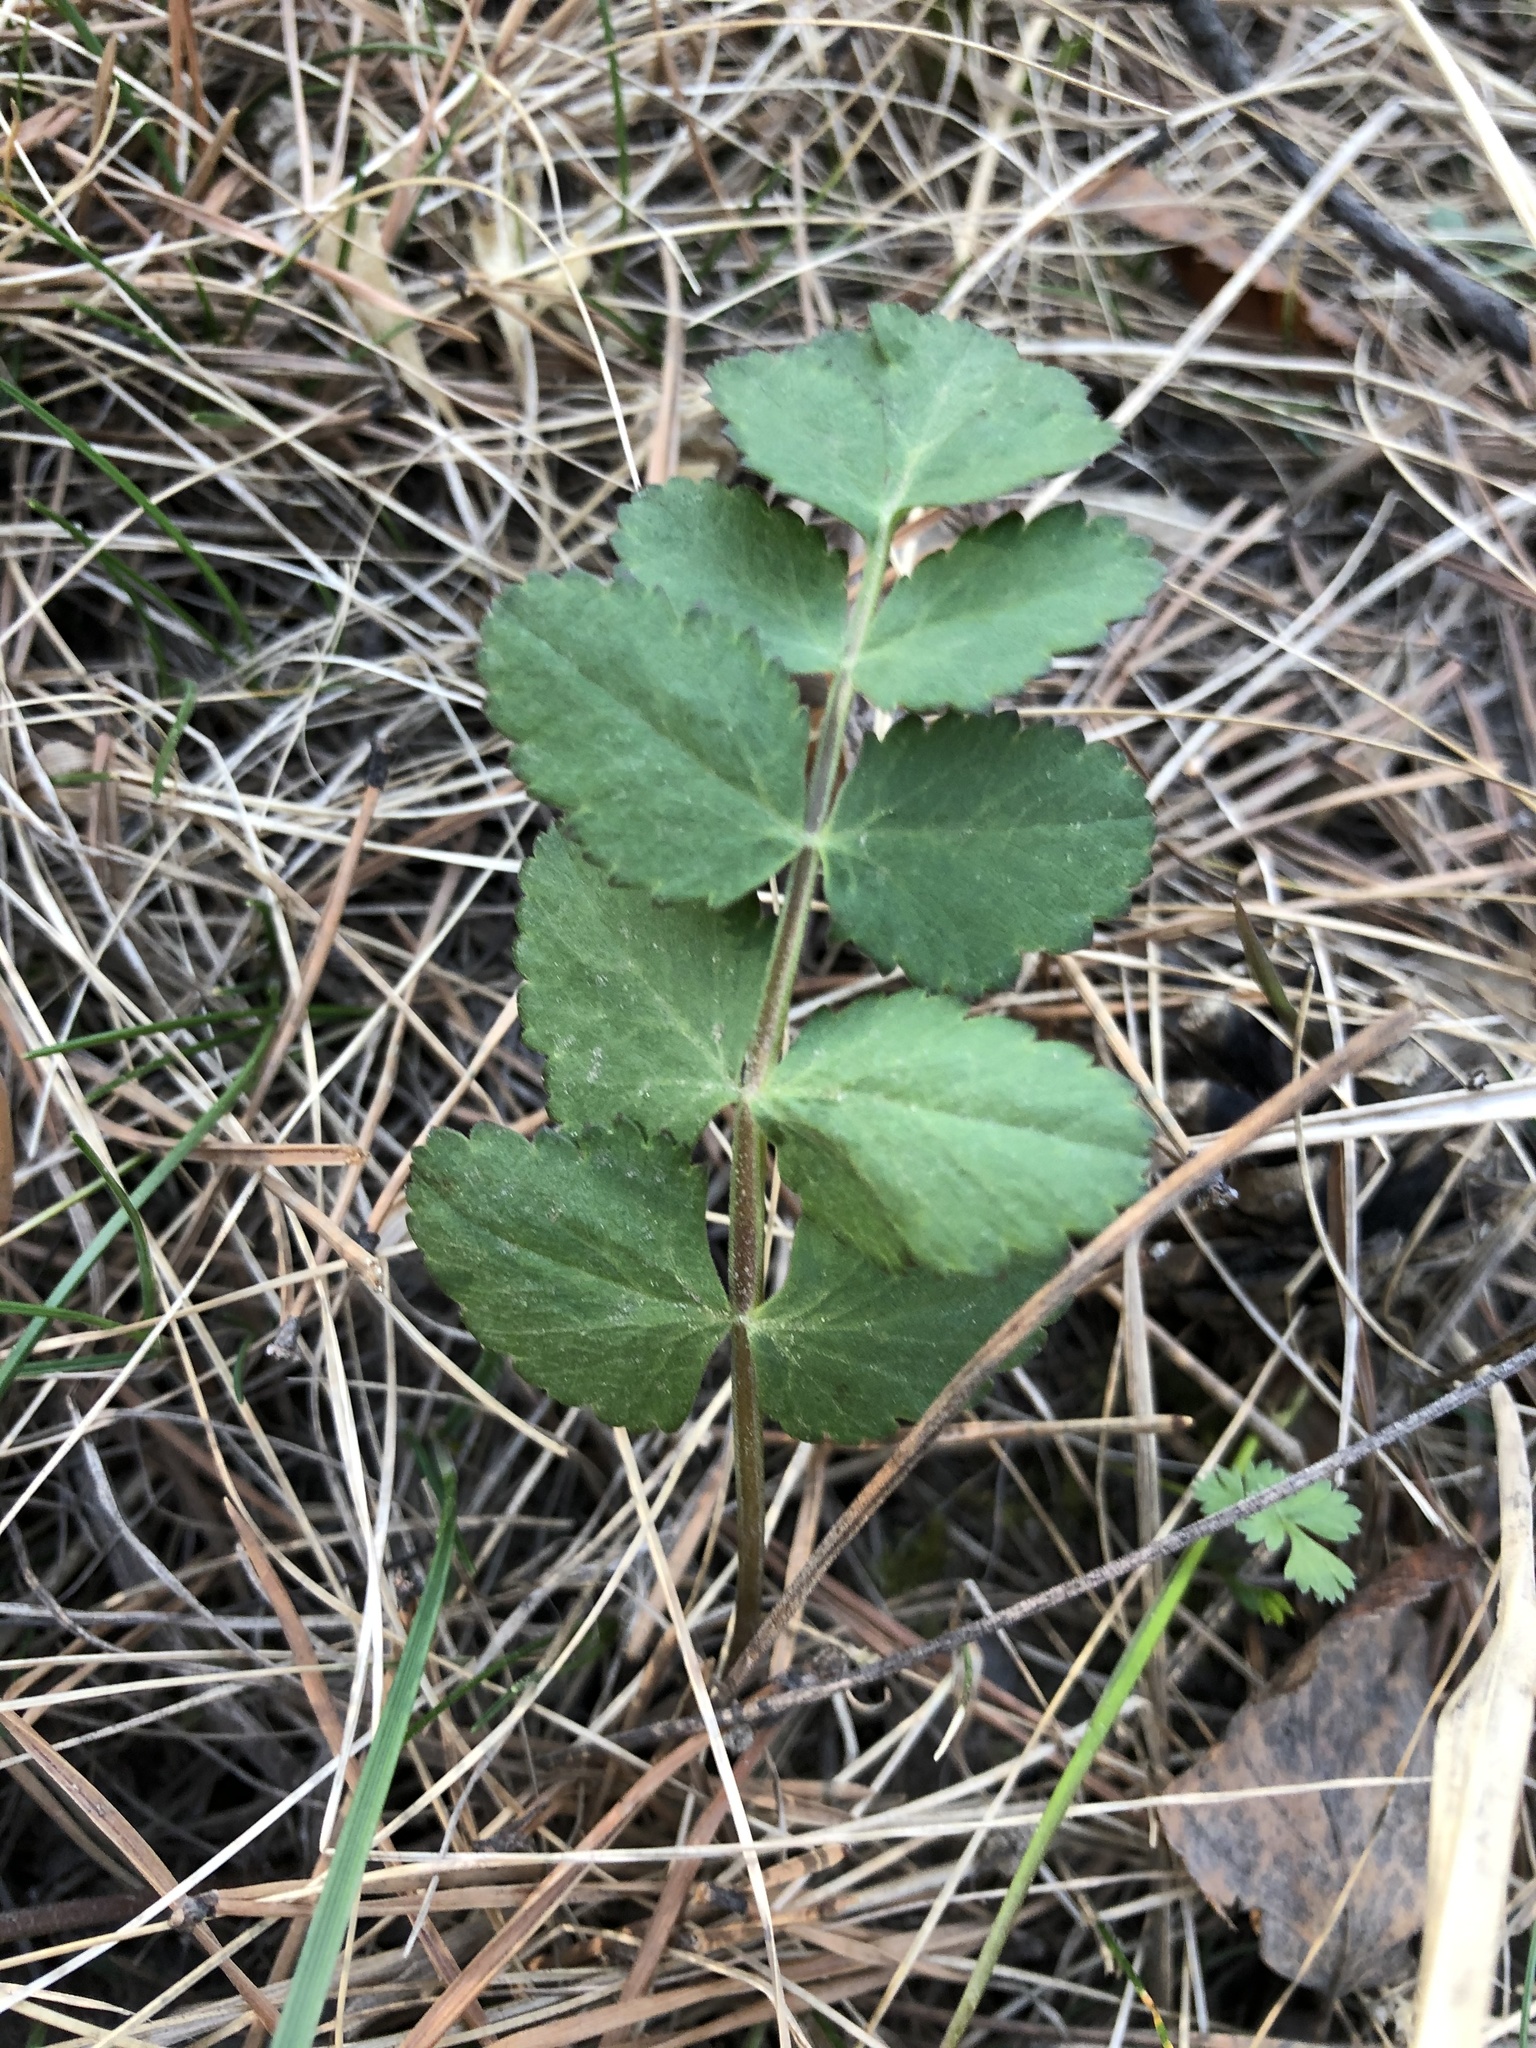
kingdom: Plantae
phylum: Tracheophyta
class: Magnoliopsida
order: Apiales
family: Apiaceae
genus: Pimpinella
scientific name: Pimpinella saxifraga
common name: Burnet-saxifrage
